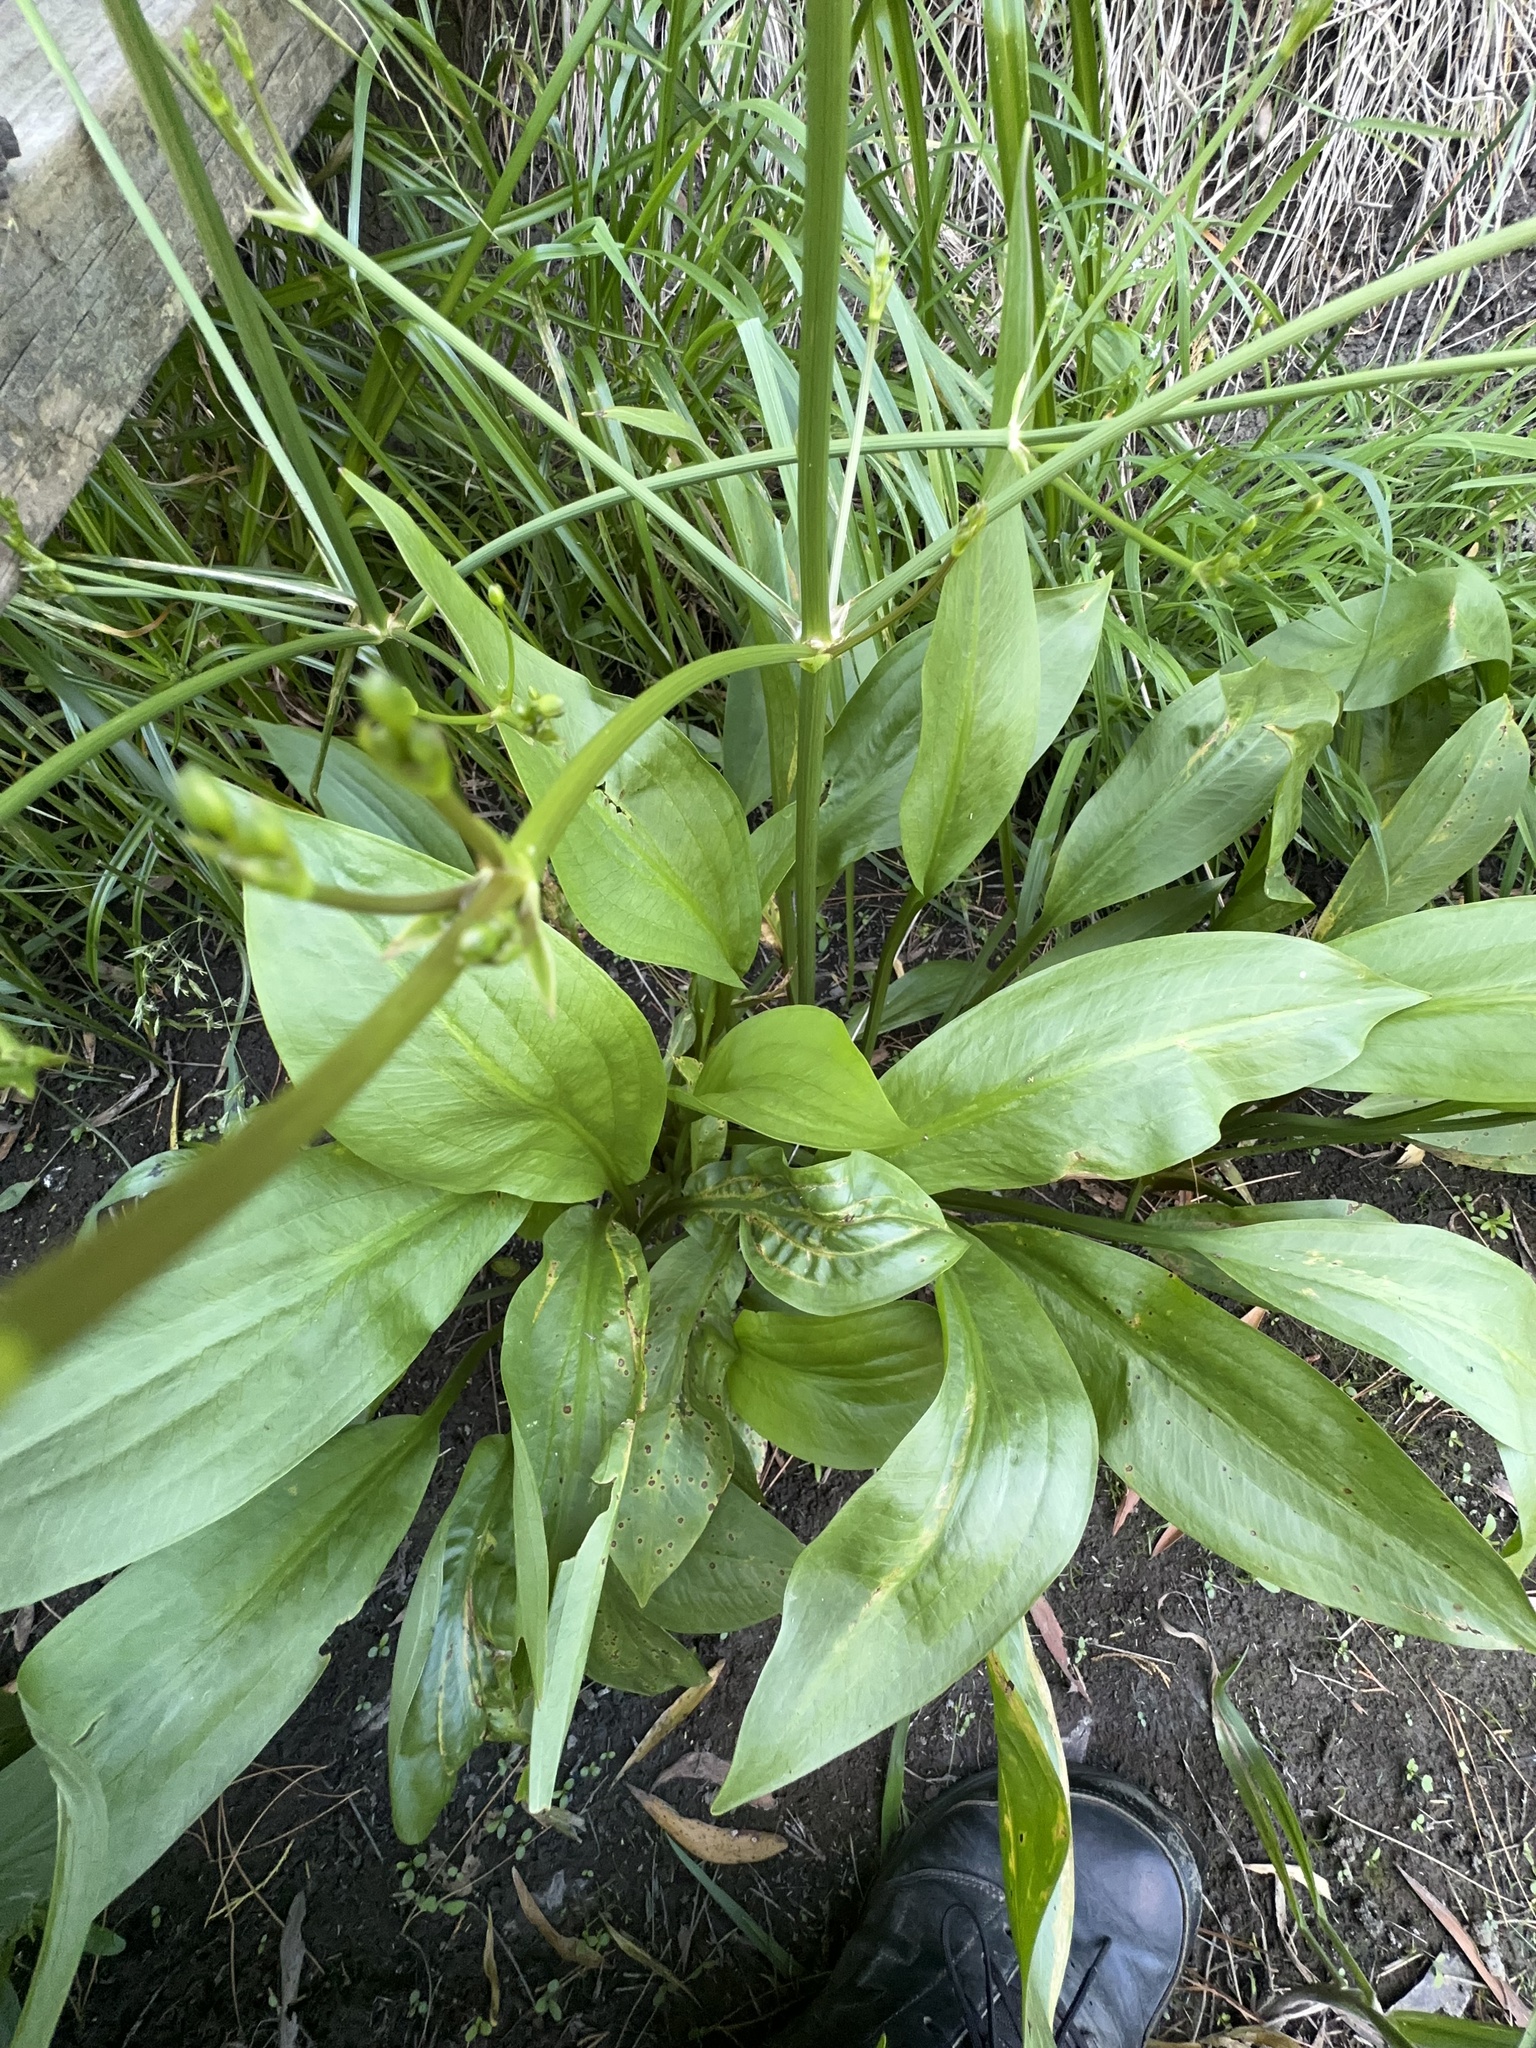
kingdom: Plantae
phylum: Tracheophyta
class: Liliopsida
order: Alismatales
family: Alismataceae
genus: Alisma
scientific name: Alisma lanceolatum
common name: Narrow-leaved water-plantain
